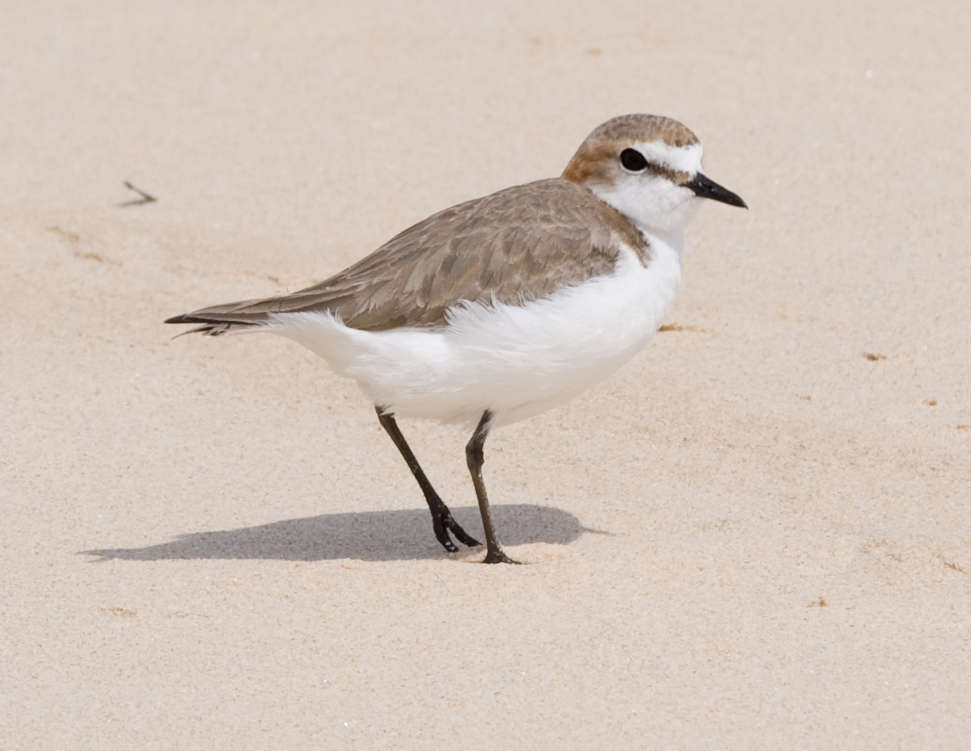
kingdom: Animalia
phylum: Chordata
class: Aves
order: Charadriiformes
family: Charadriidae
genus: Anarhynchus
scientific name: Anarhynchus
